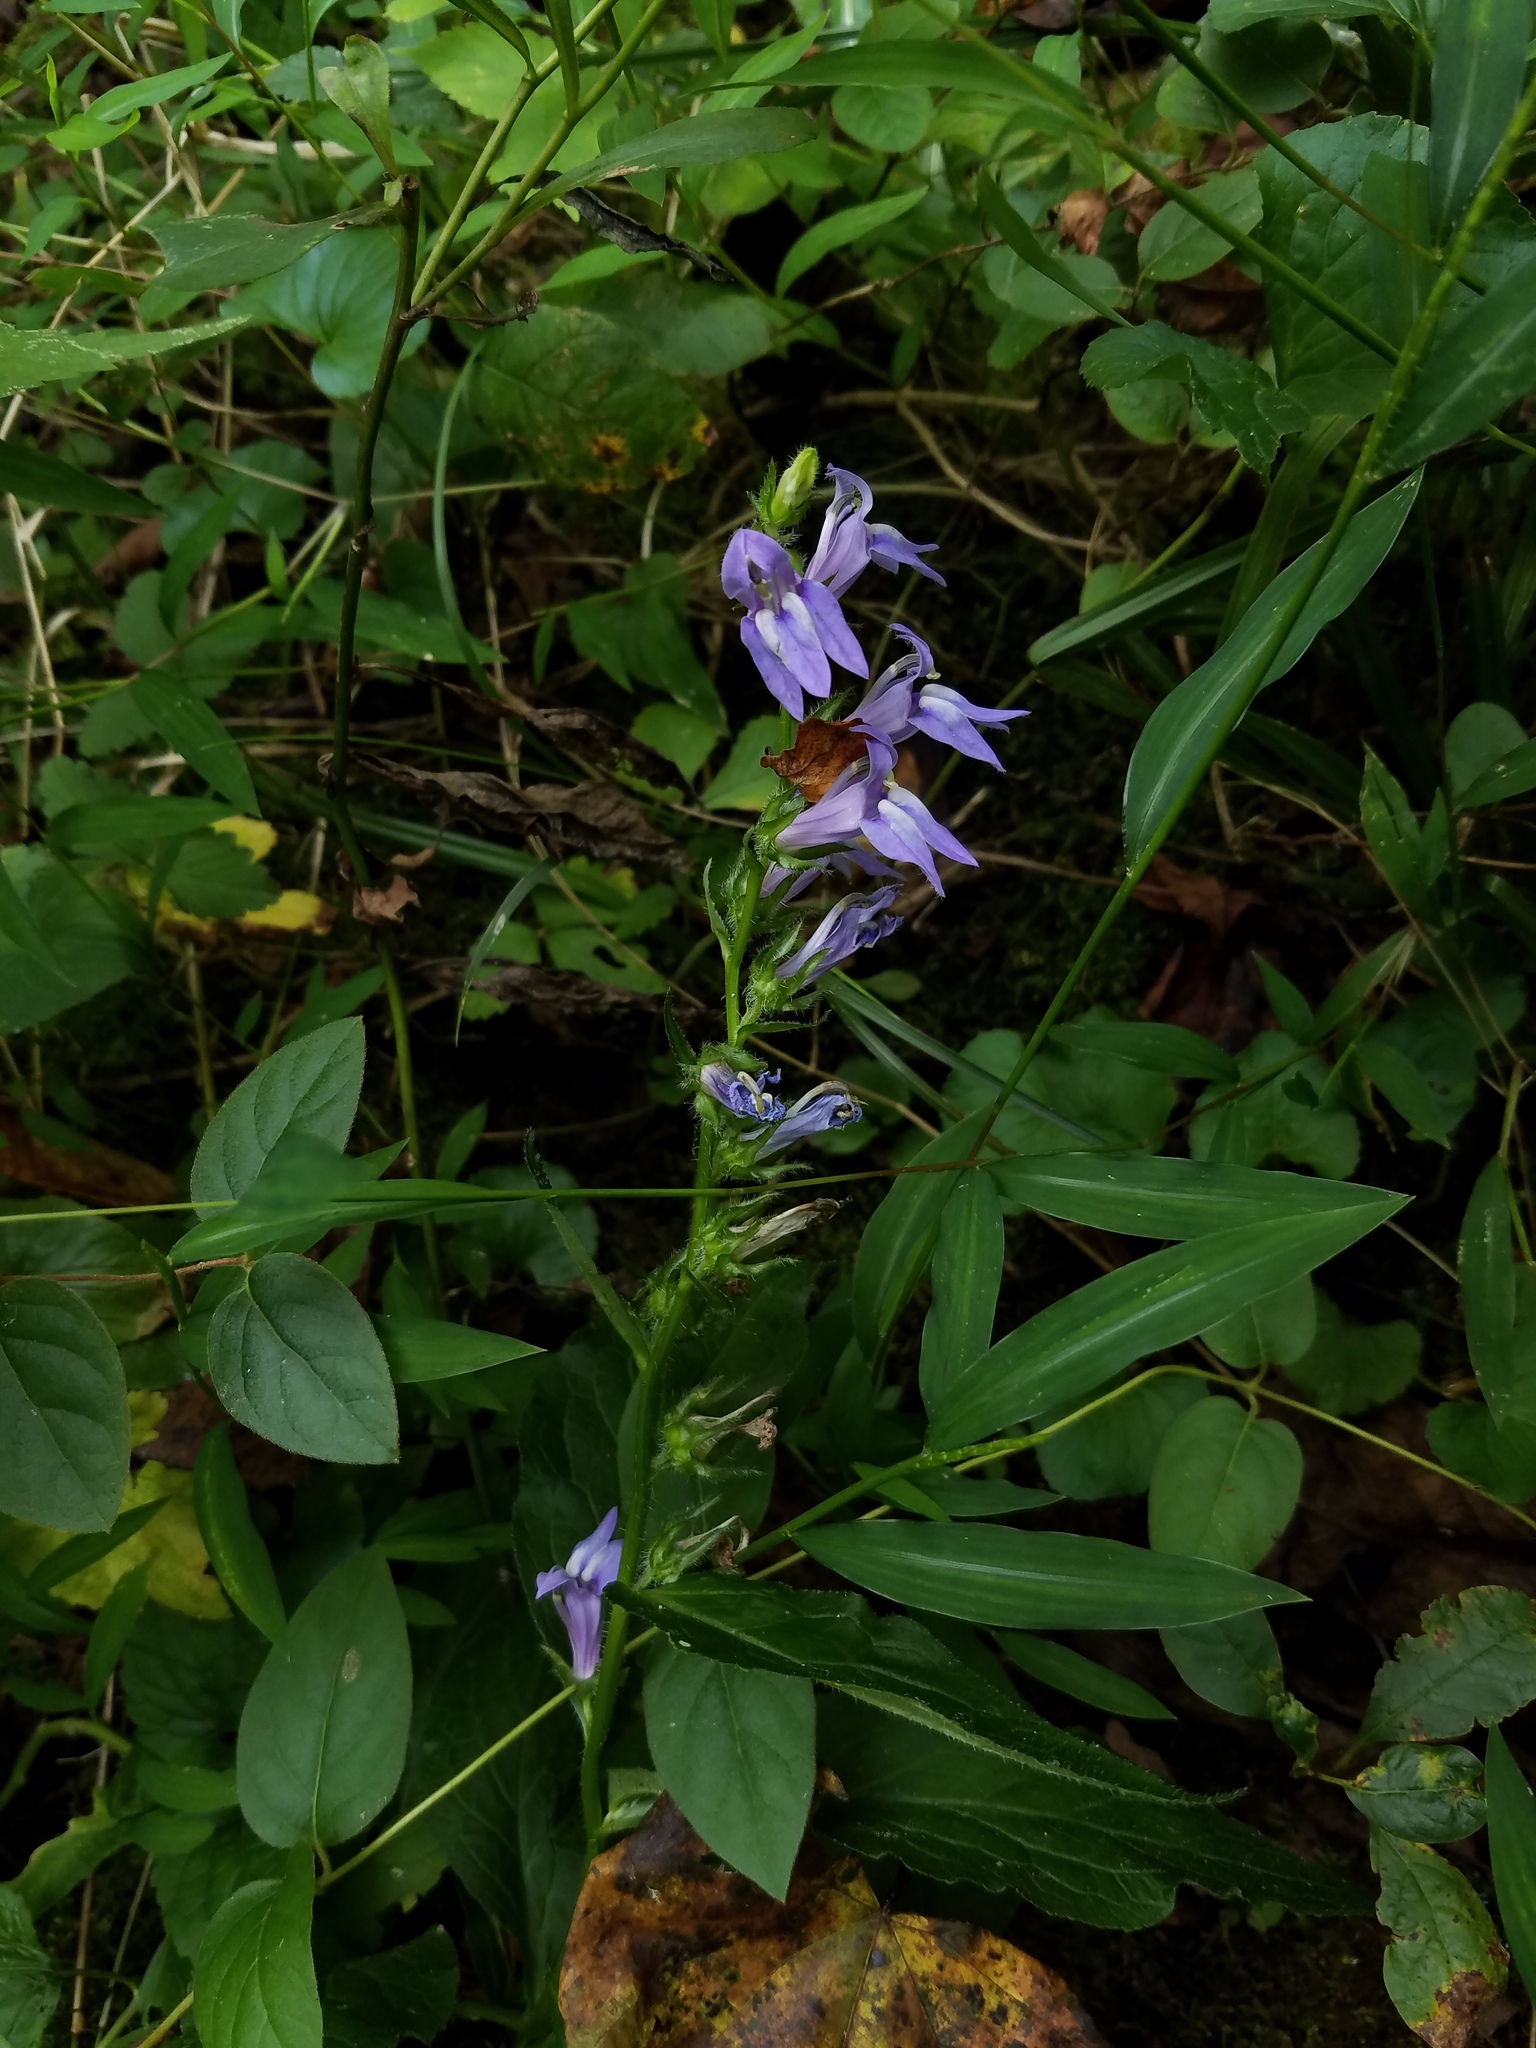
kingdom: Plantae
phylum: Tracheophyta
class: Magnoliopsida
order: Asterales
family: Campanulaceae
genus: Lobelia
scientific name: Lobelia siphilitica
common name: Great lobelia
